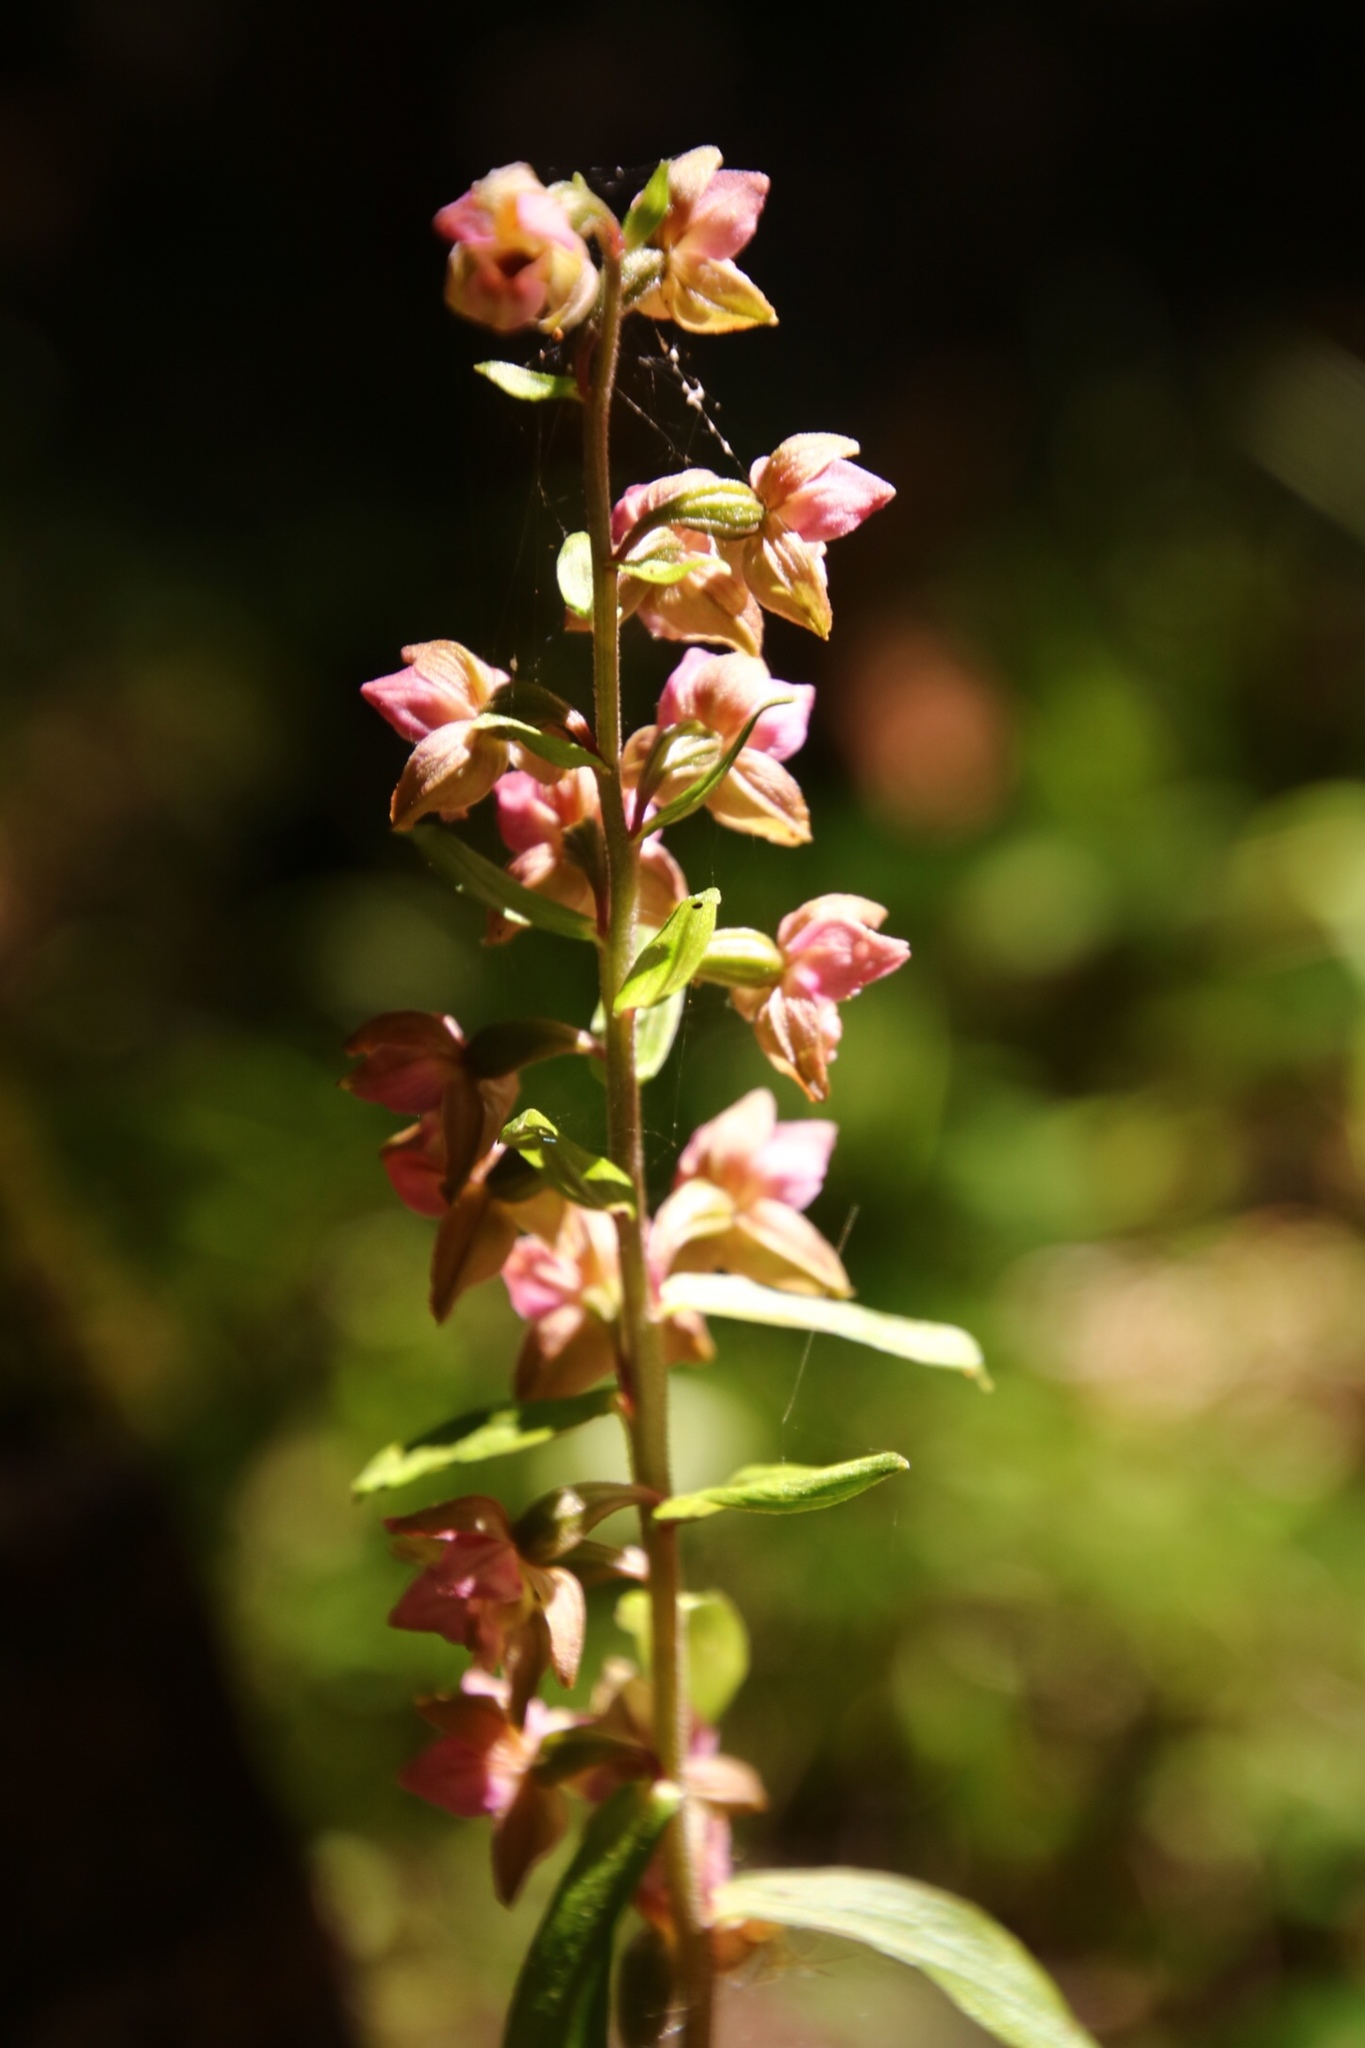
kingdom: Plantae
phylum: Tracheophyta
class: Liliopsida
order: Asparagales
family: Orchidaceae
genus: Epipactis
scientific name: Epipactis helleborine
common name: Broad-leaved helleborine
